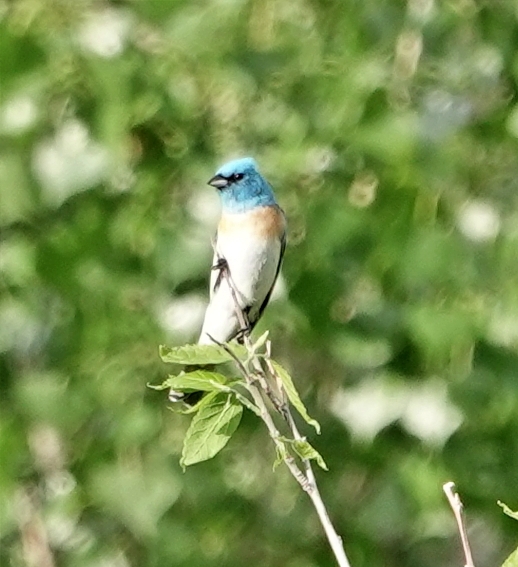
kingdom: Animalia
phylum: Chordata
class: Aves
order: Passeriformes
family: Cardinalidae
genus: Passerina
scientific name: Passerina amoena
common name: Lazuli bunting
